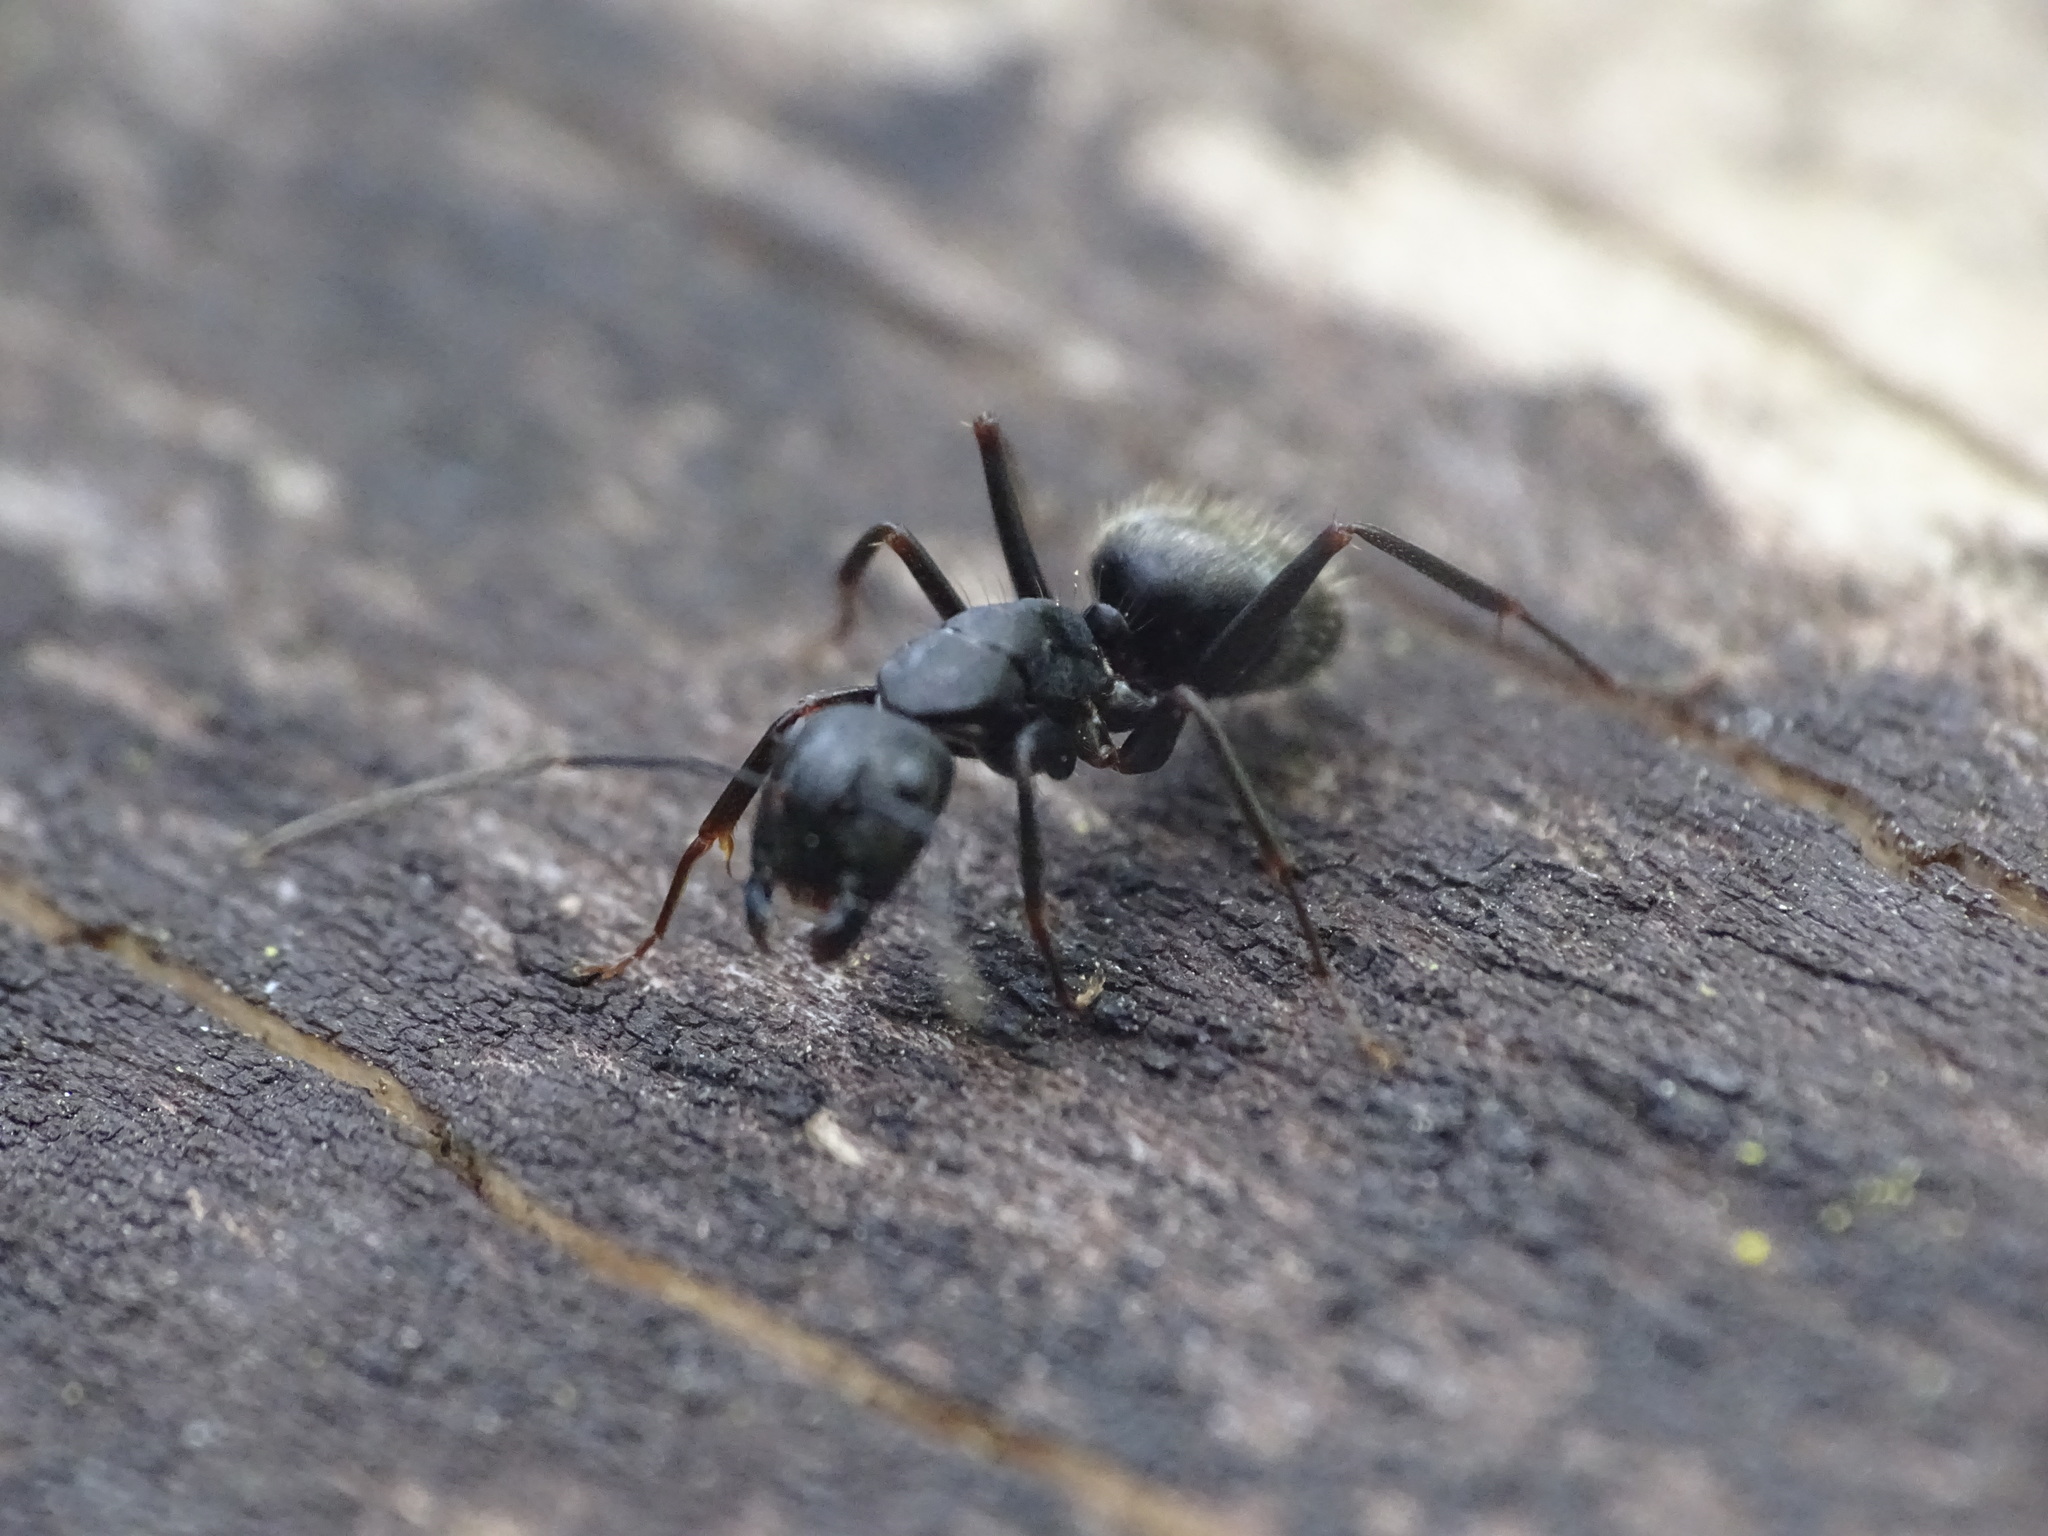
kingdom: Animalia
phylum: Arthropoda
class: Insecta
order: Hymenoptera
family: Formicidae
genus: Camponotus
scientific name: Camponotus pennsylvanicus
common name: Black carpenter ant
